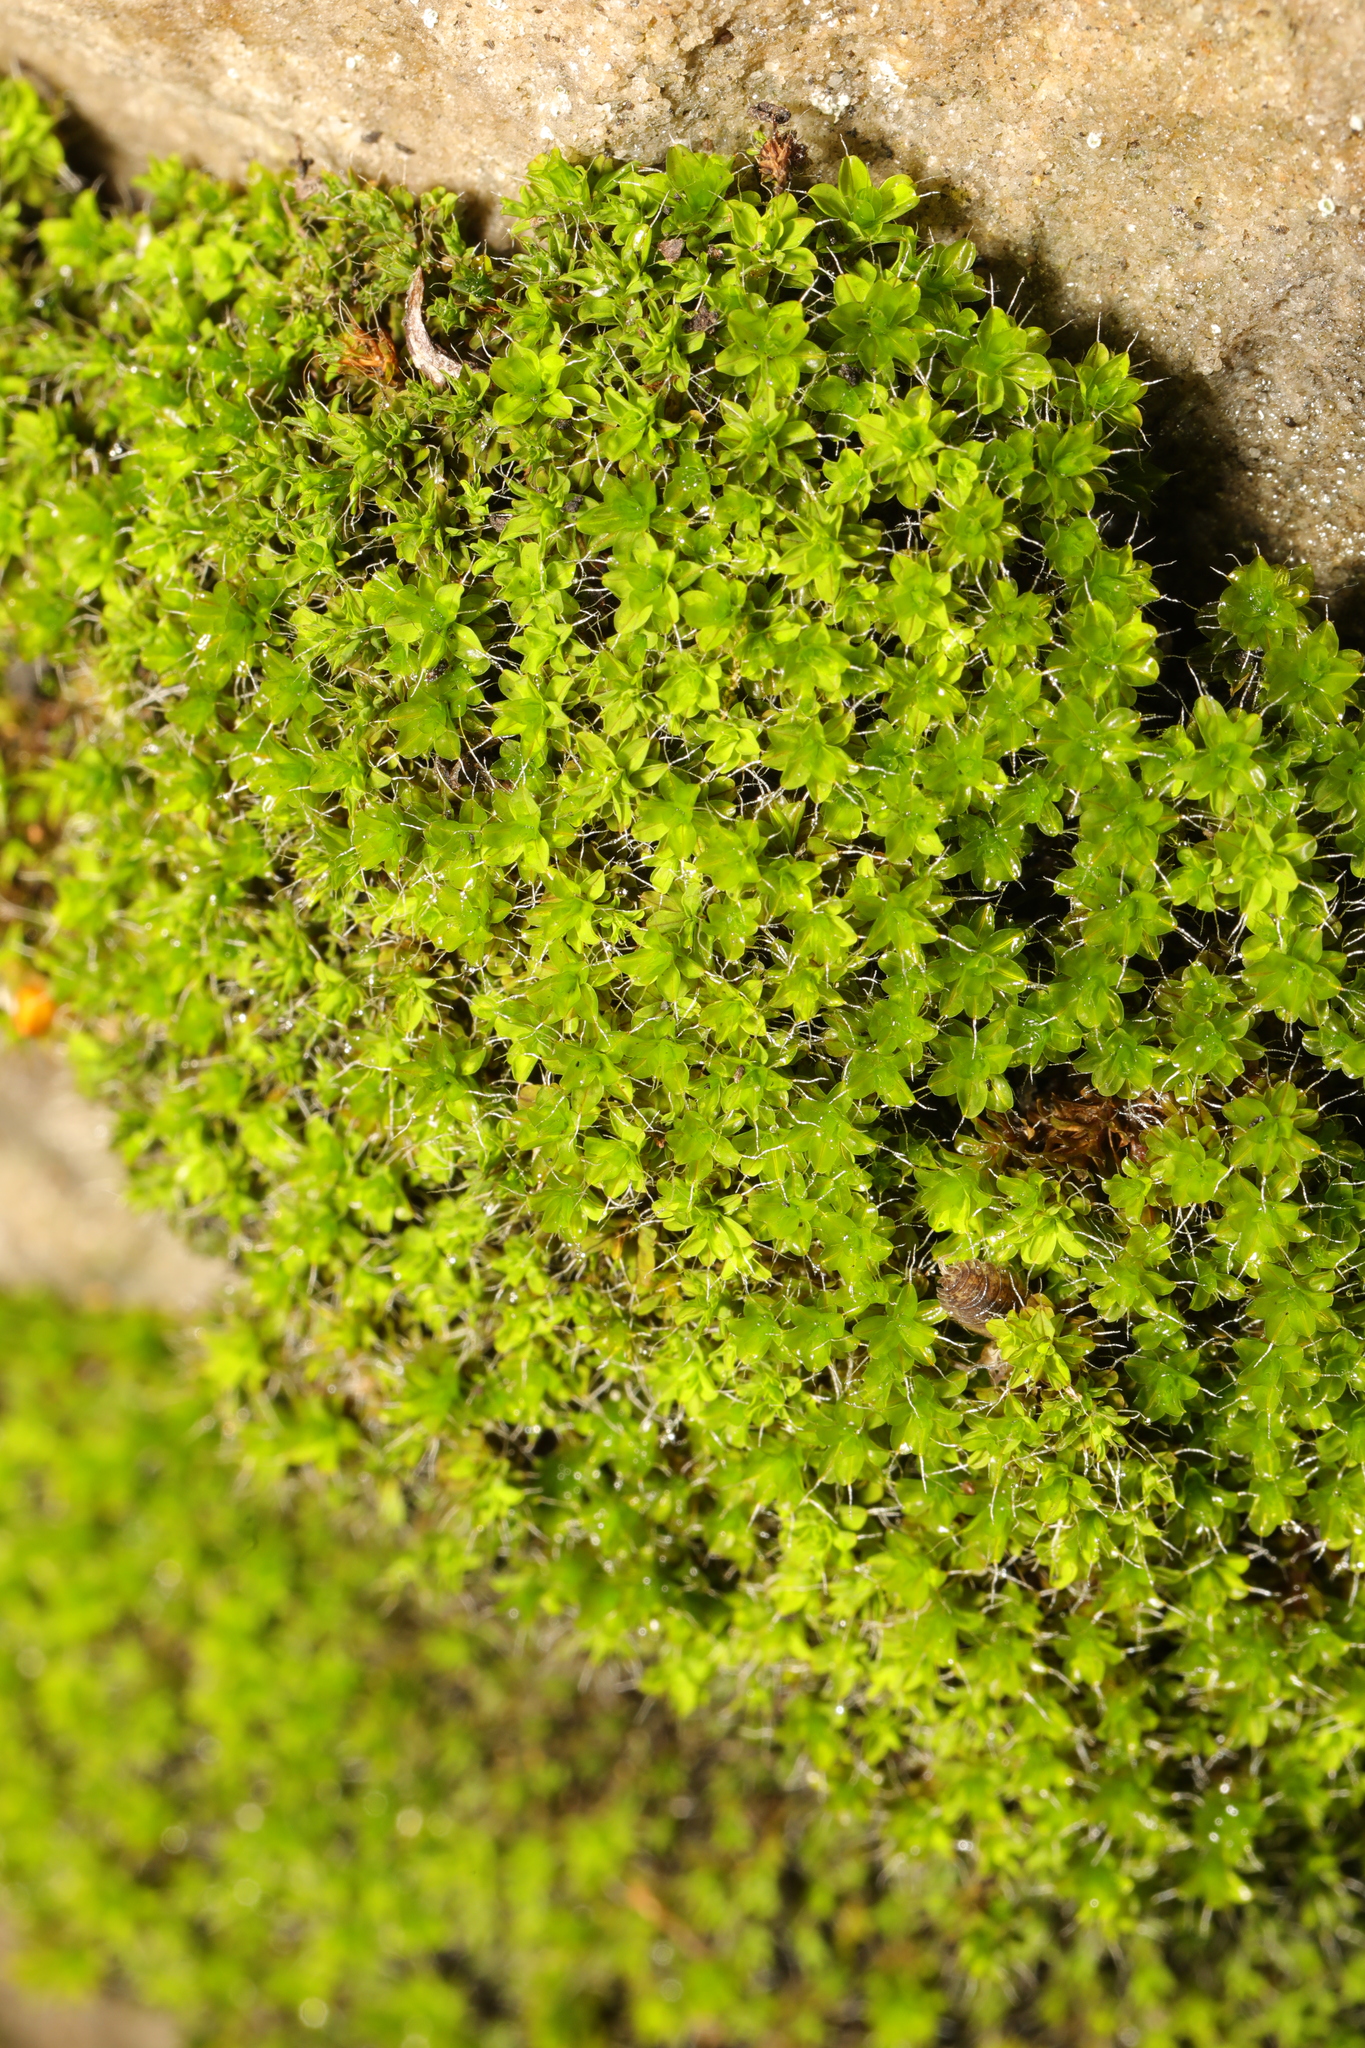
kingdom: Plantae
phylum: Bryophyta
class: Bryopsida
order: Pottiales
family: Pottiaceae
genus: Syntrichia
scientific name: Syntrichia montana
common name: Intermediate screw-moss
